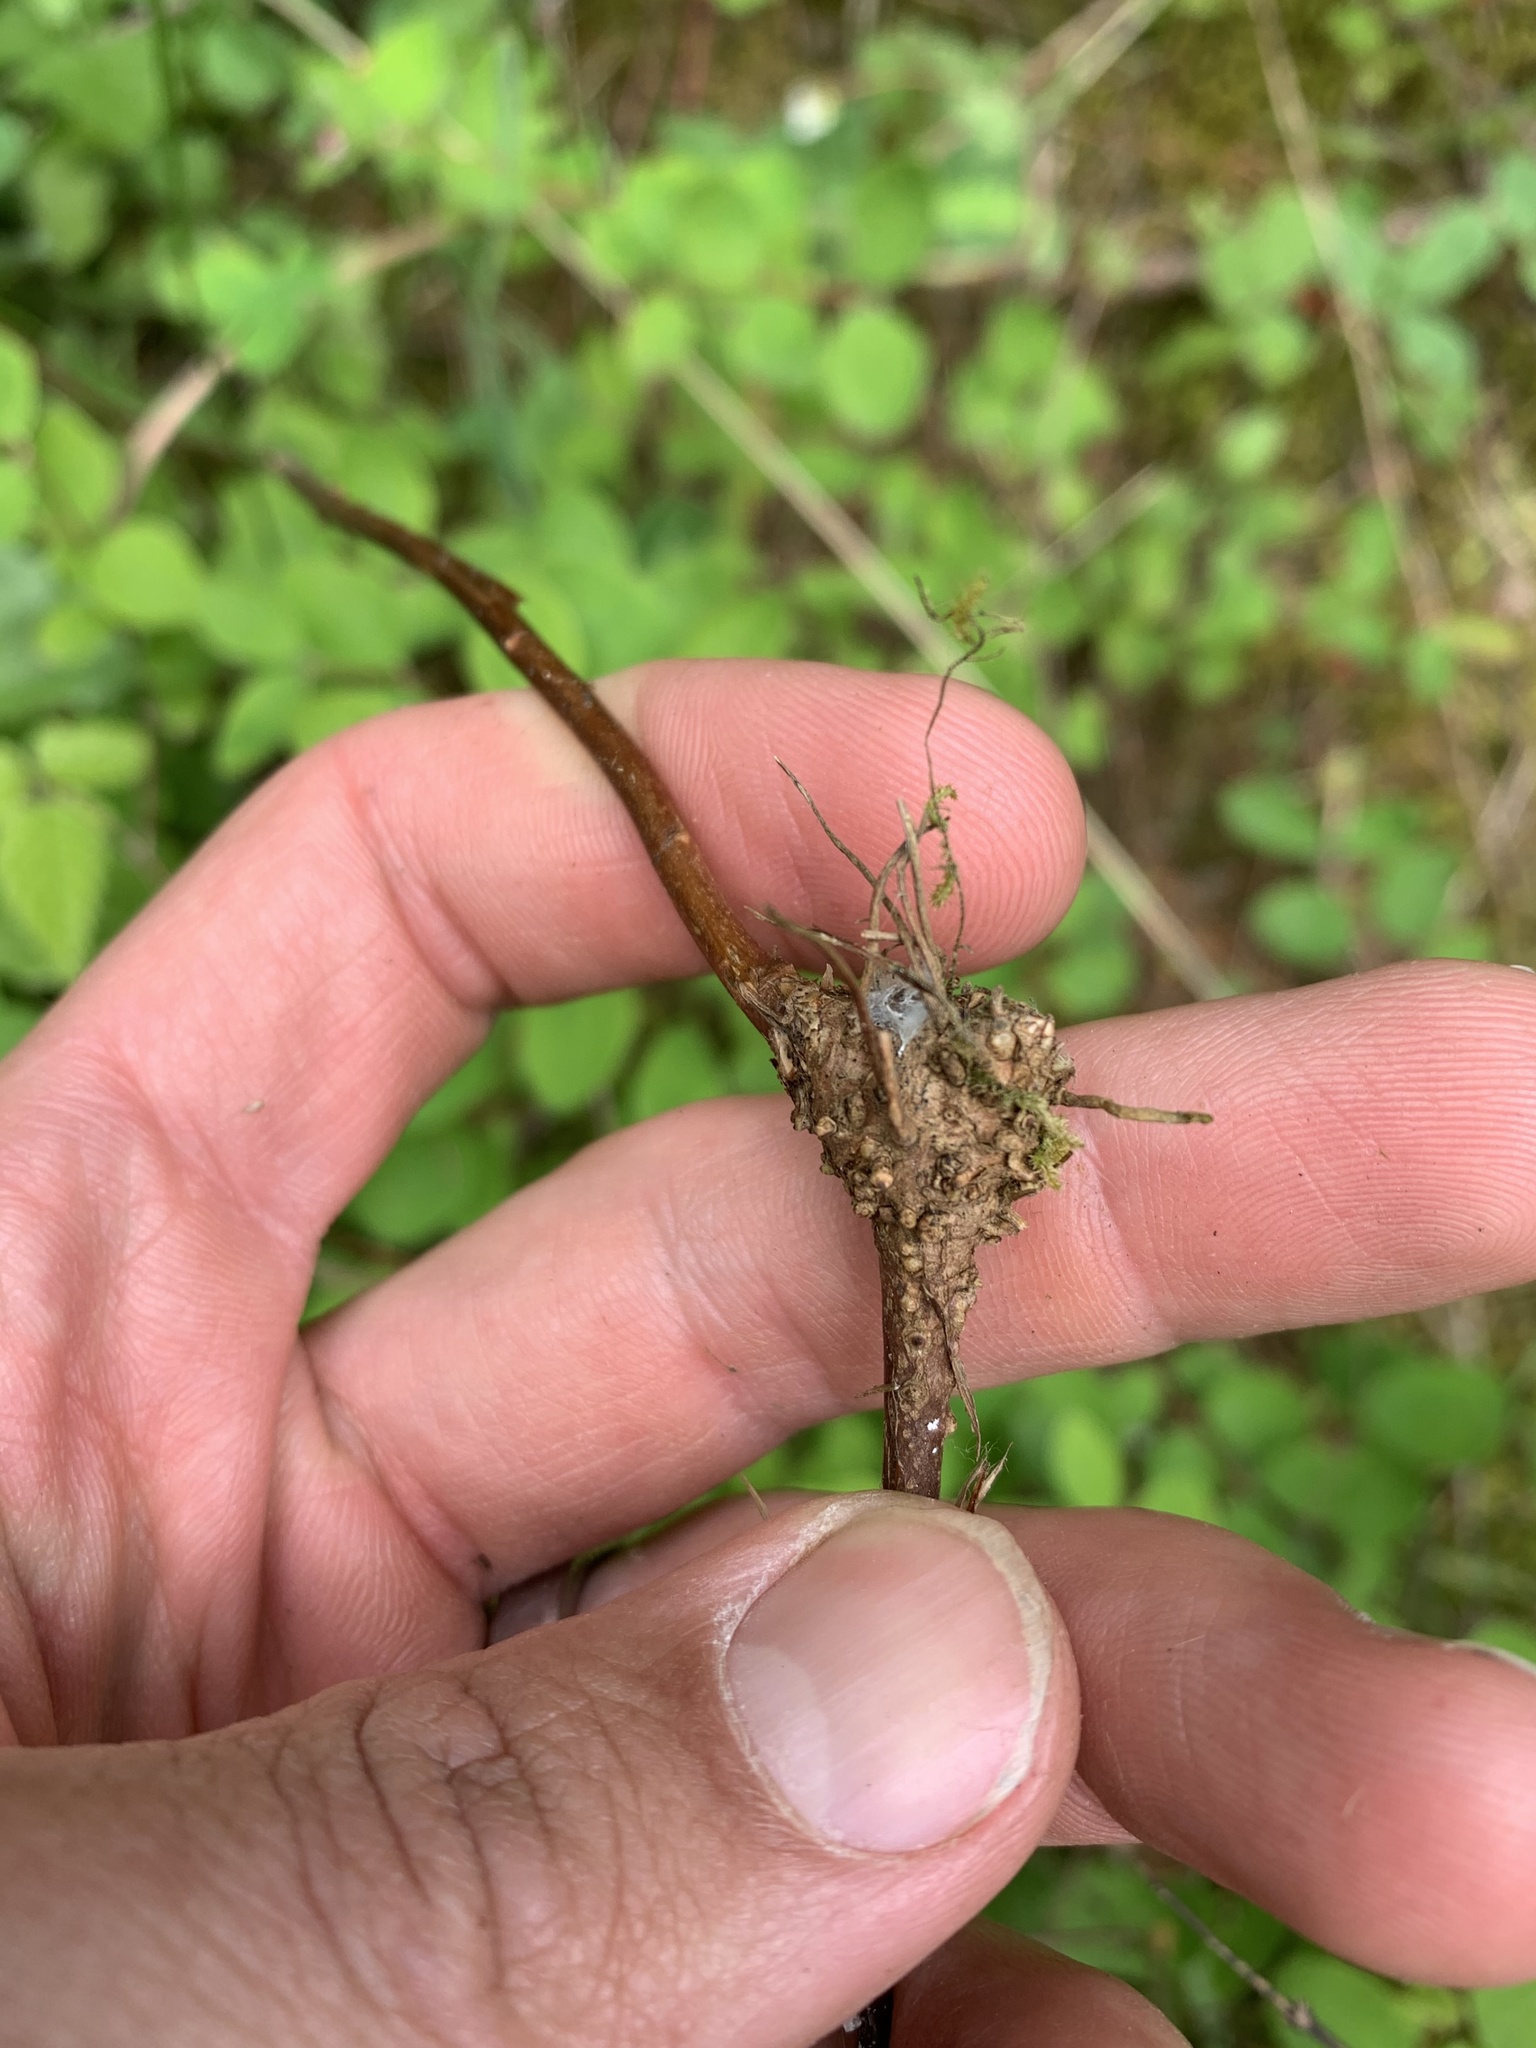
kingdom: Plantae
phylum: Tracheophyta
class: Magnoliopsida
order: Dipsacales
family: Caprifoliaceae
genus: Symphoricarpos
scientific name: Symphoricarpos mollis
